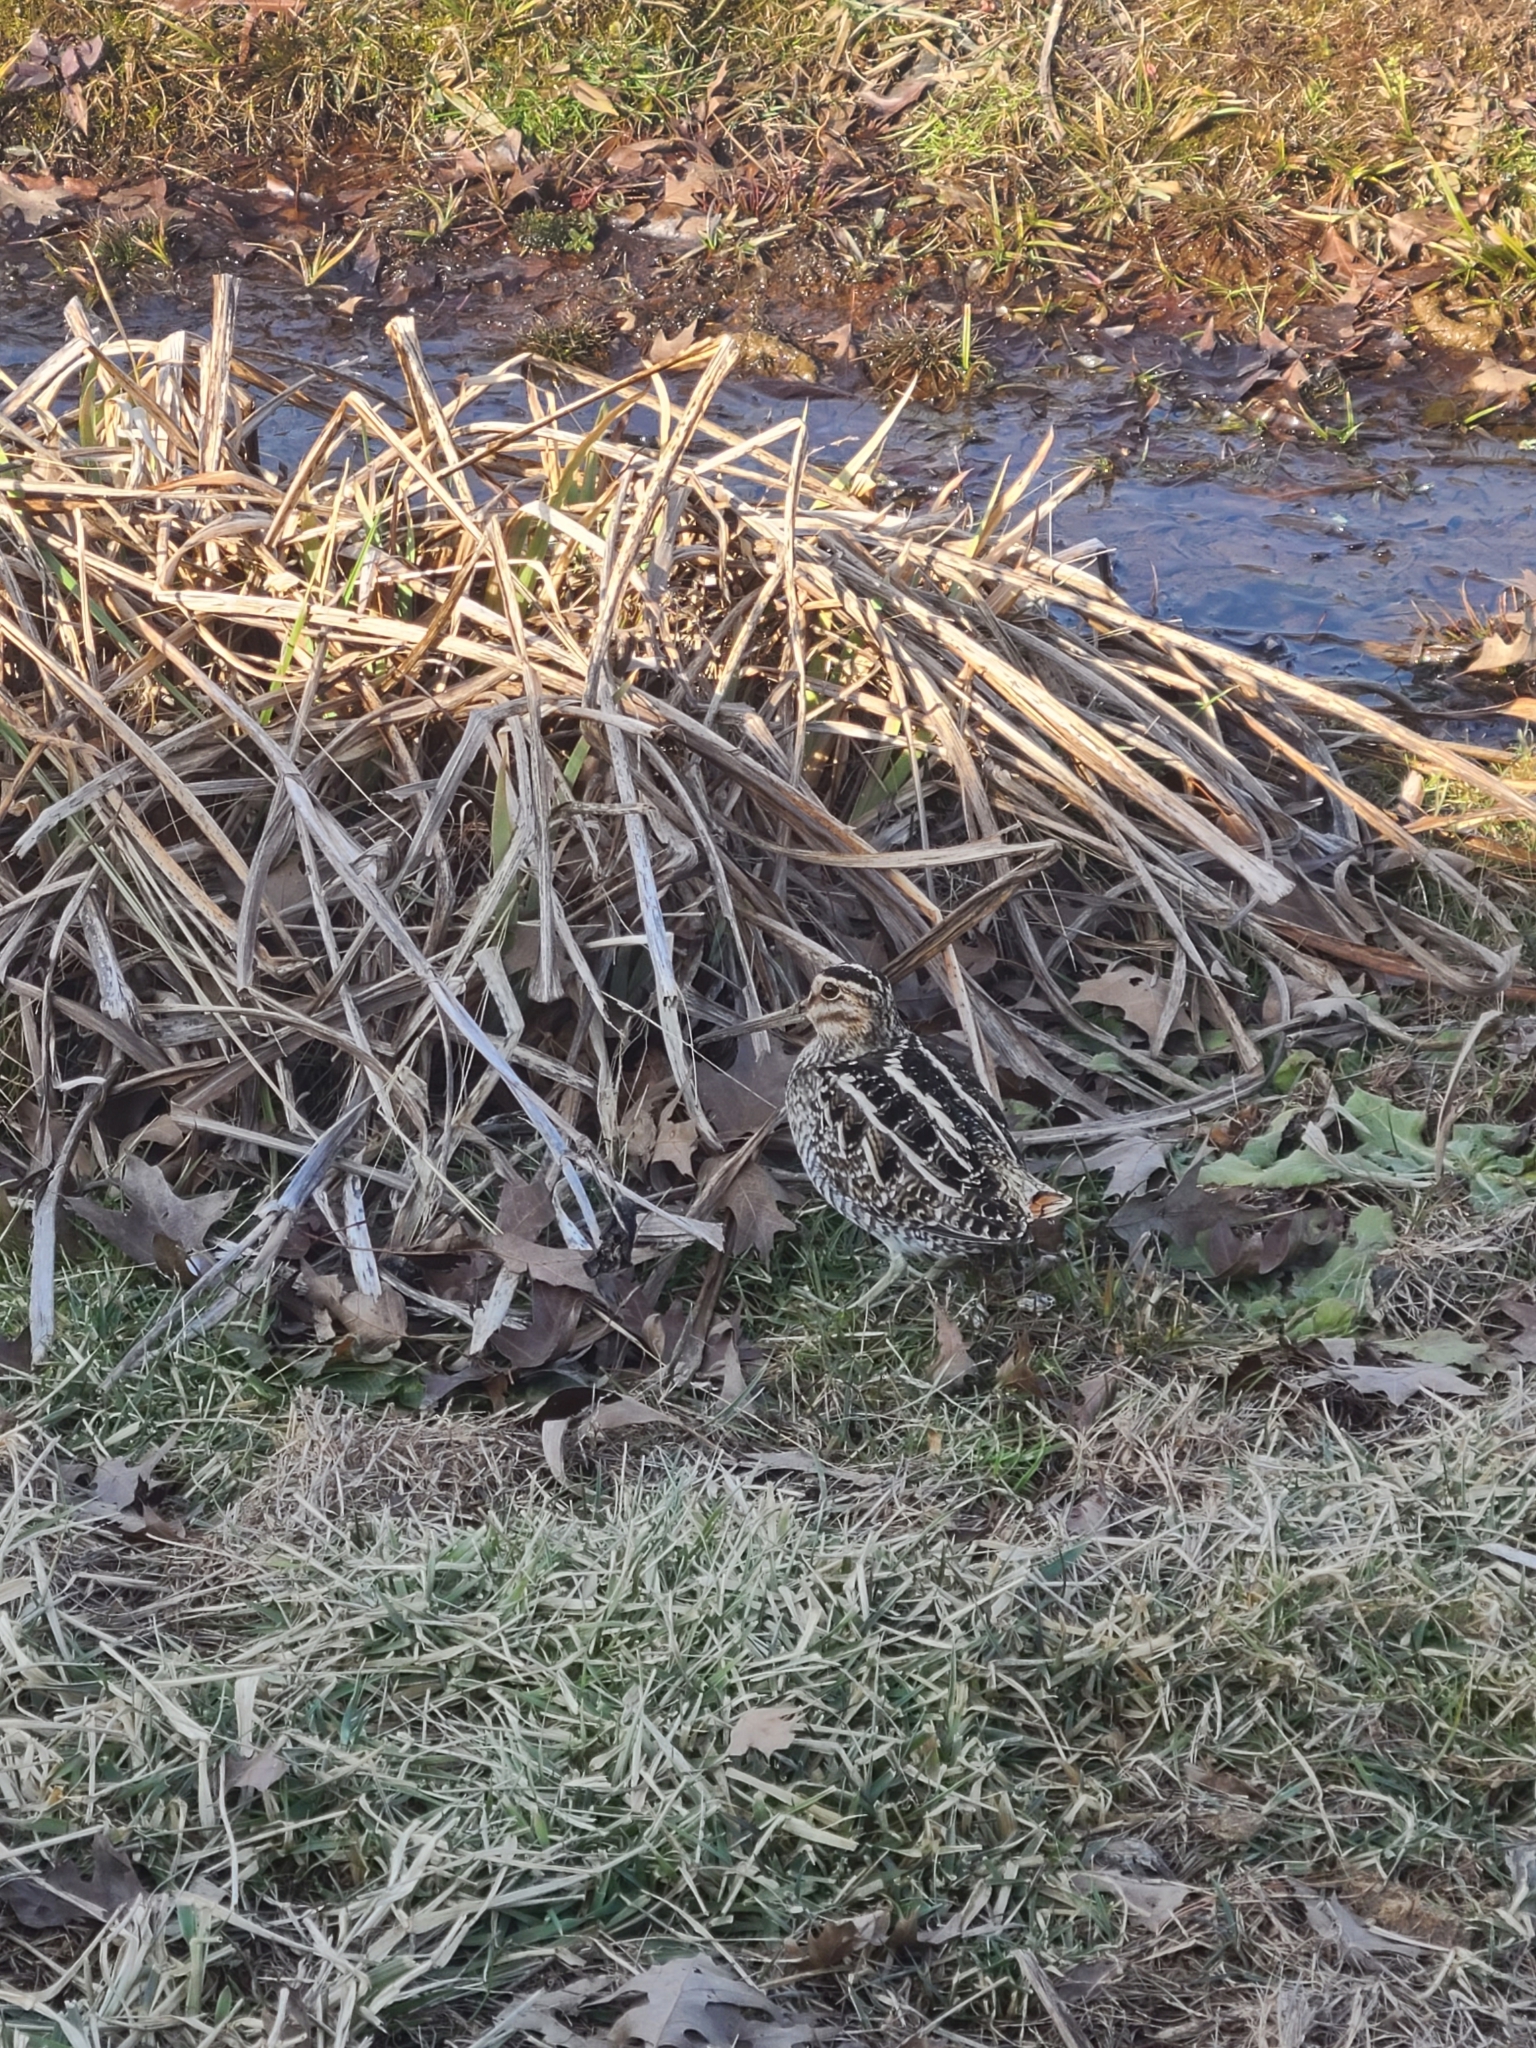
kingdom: Animalia
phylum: Chordata
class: Aves
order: Charadriiformes
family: Scolopacidae
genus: Gallinago
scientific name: Gallinago delicata
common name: Wilson's snipe
